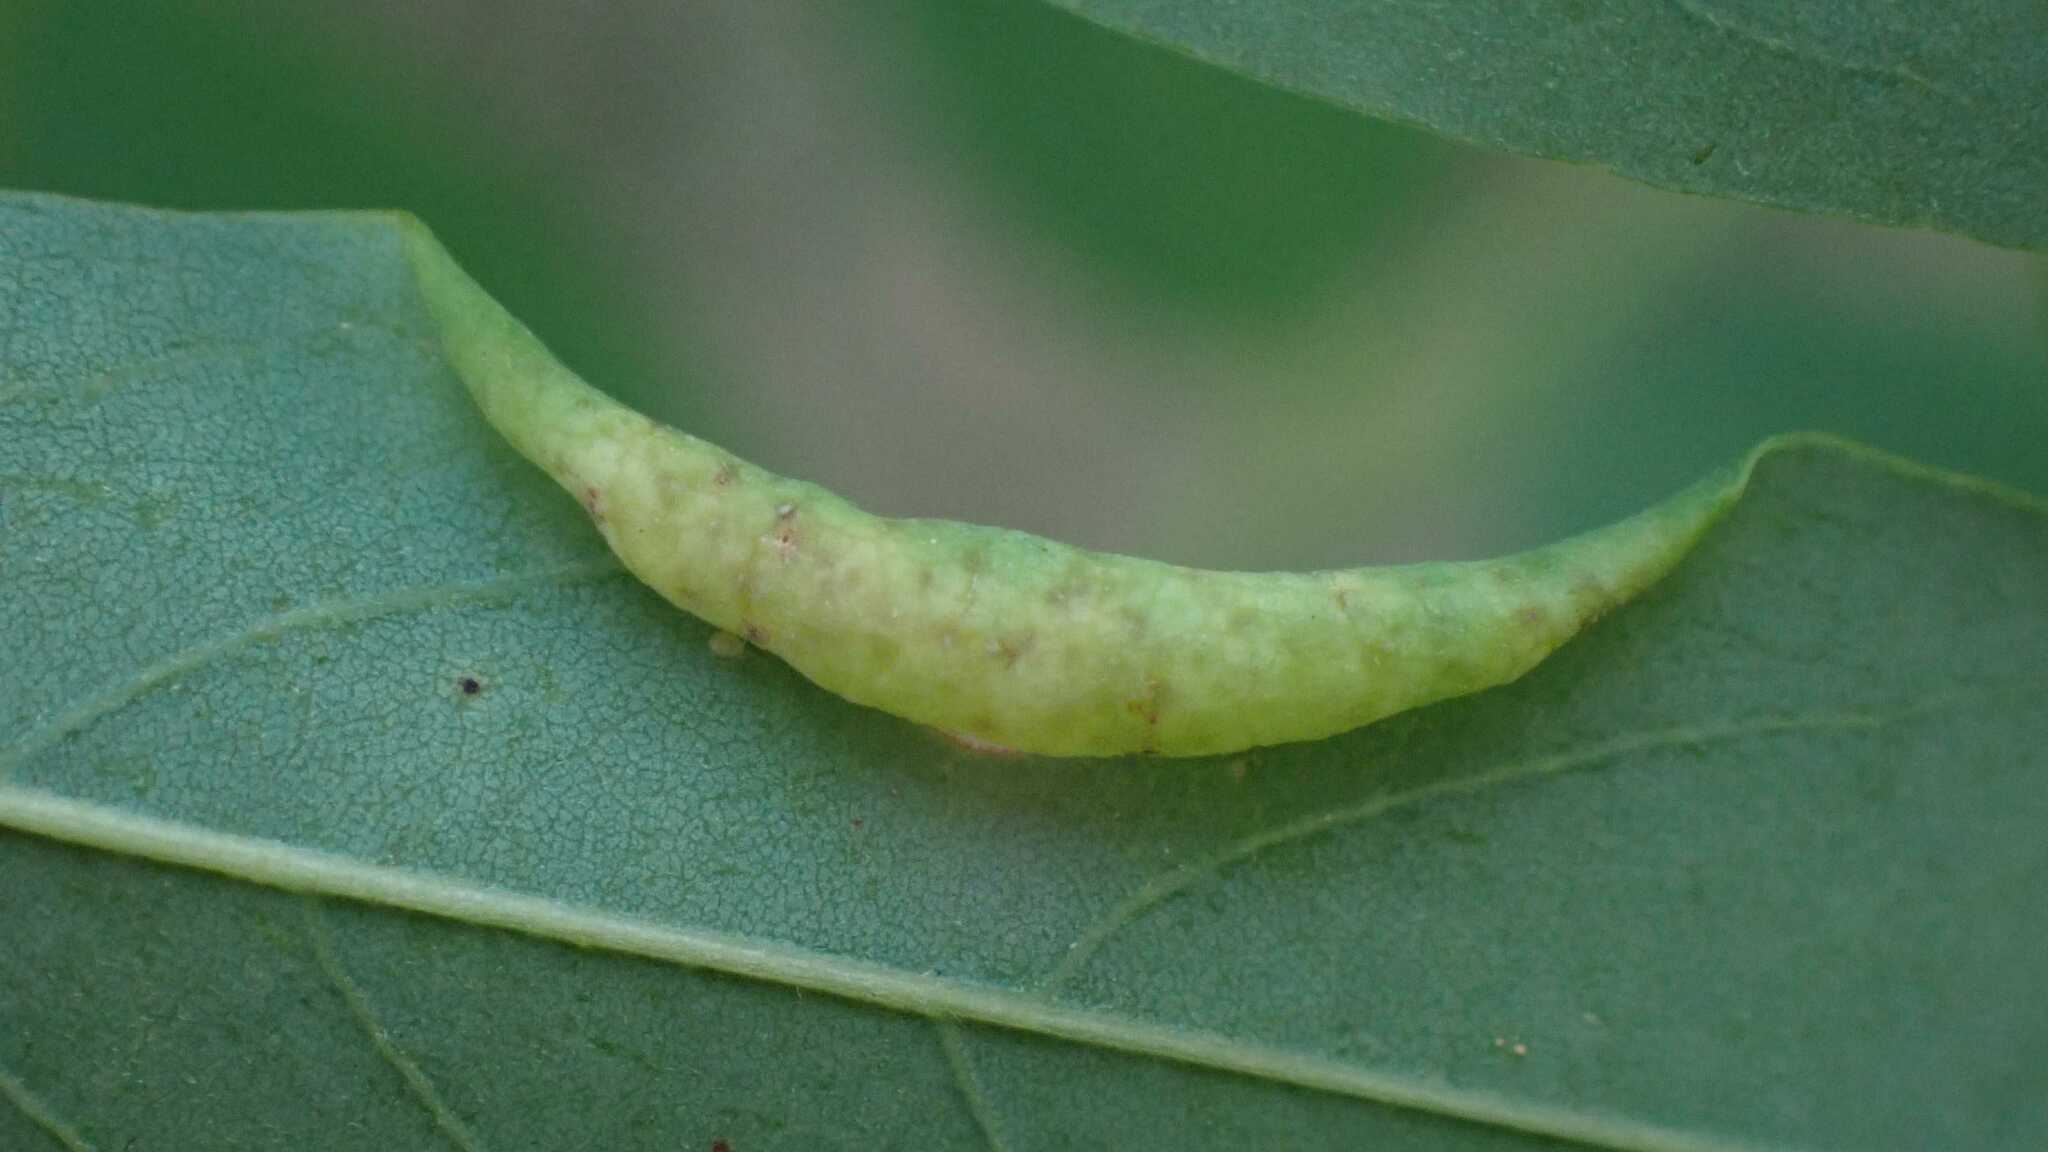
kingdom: Animalia
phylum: Arthropoda
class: Insecta
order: Diptera
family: Cecidomyiidae
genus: Obolodiplosis
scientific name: Obolodiplosis robiniae
